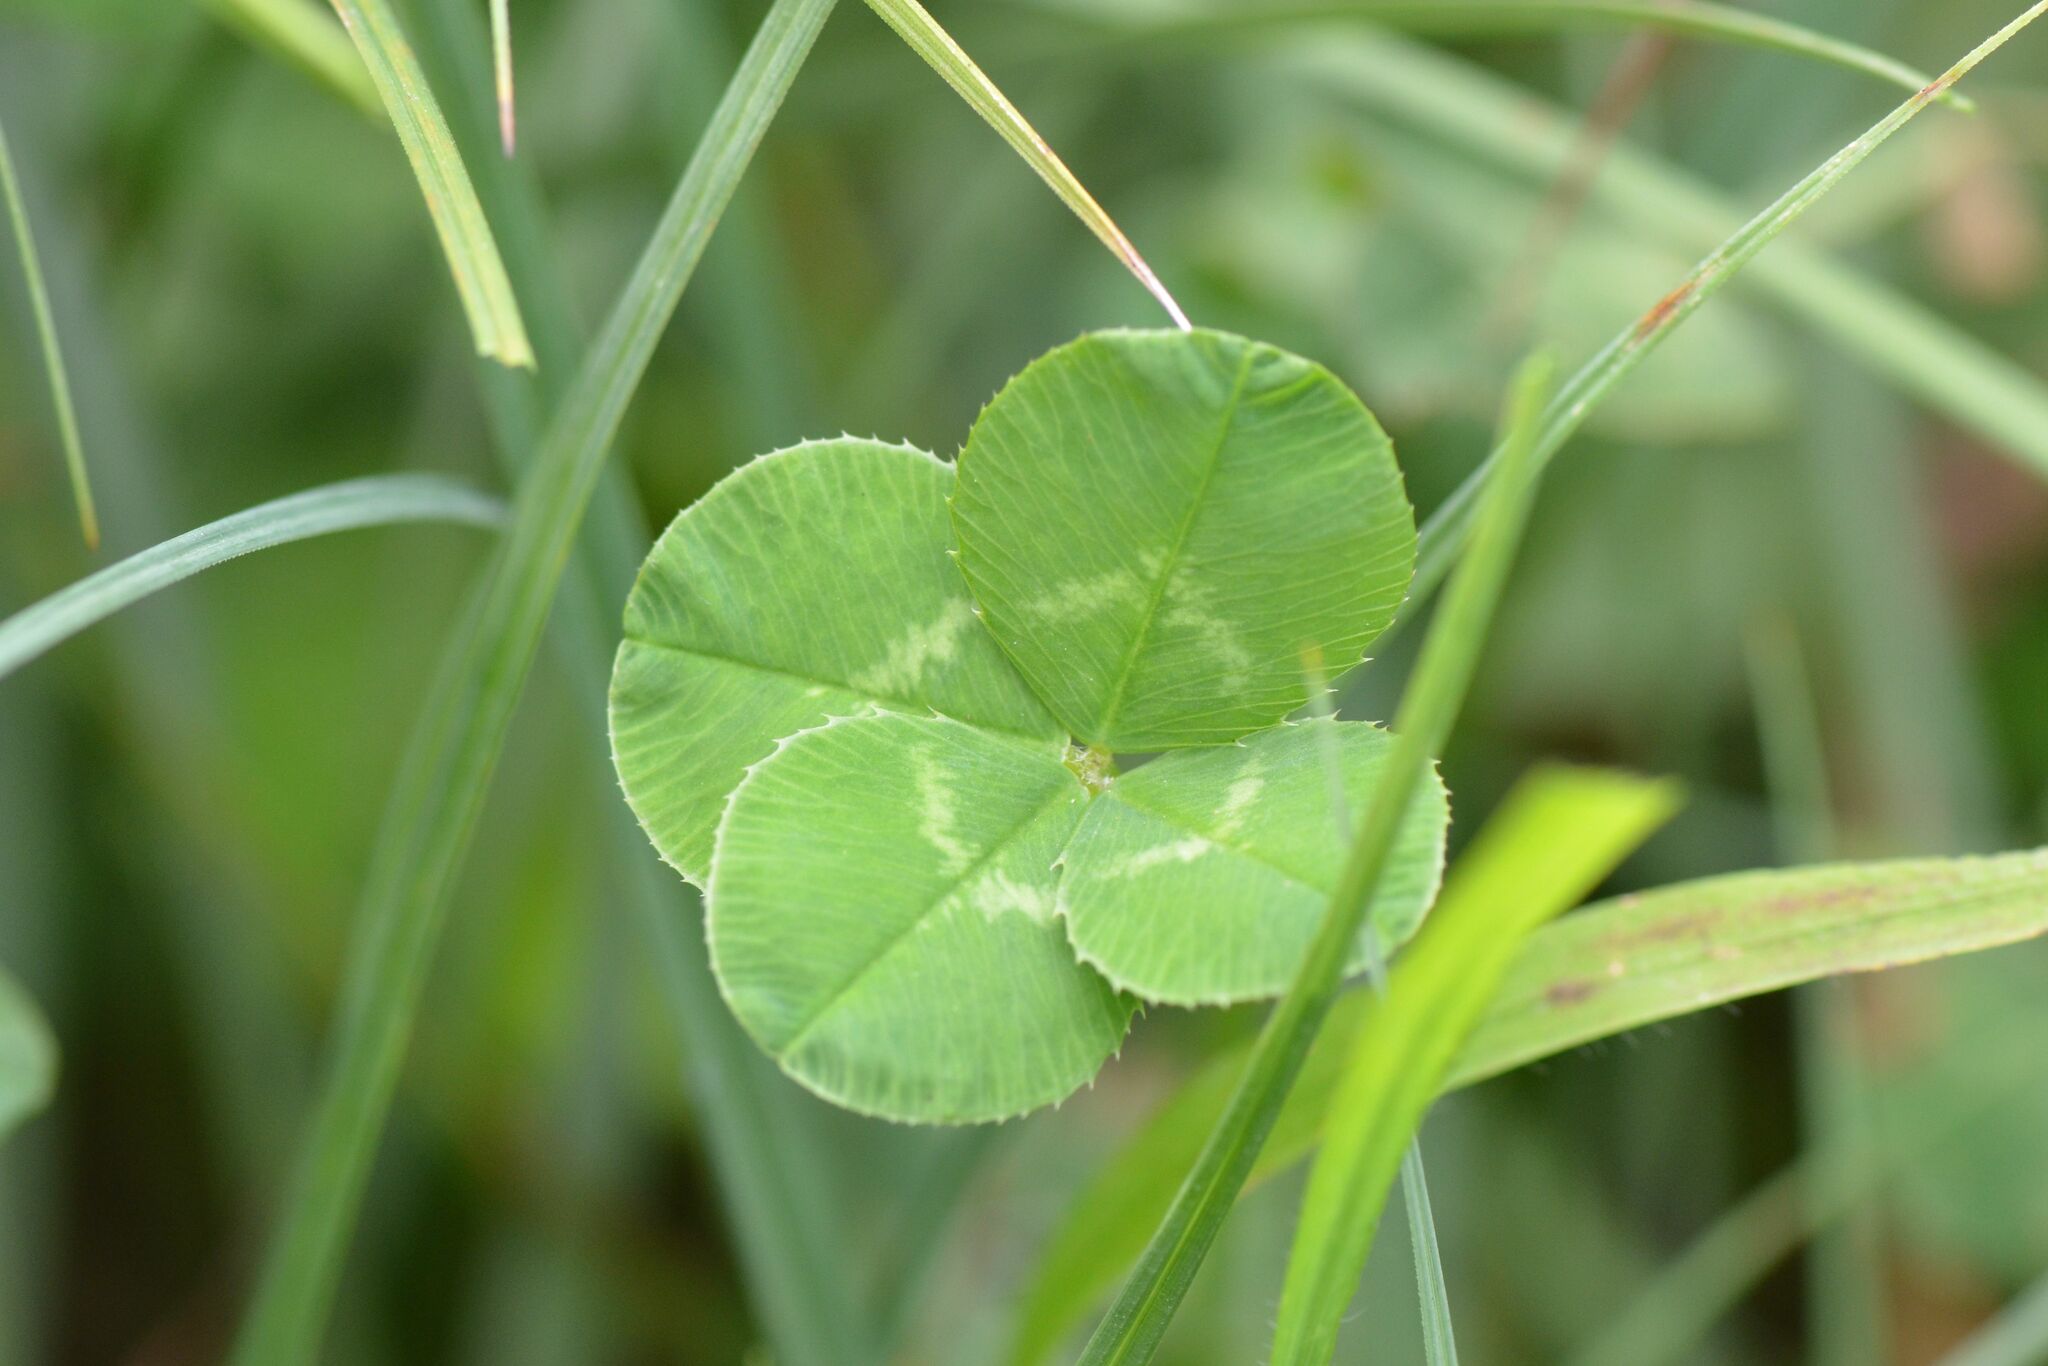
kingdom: Plantae
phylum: Tracheophyta
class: Magnoliopsida
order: Fabales
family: Fabaceae
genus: Trifolium
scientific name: Trifolium repens
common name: White clover
